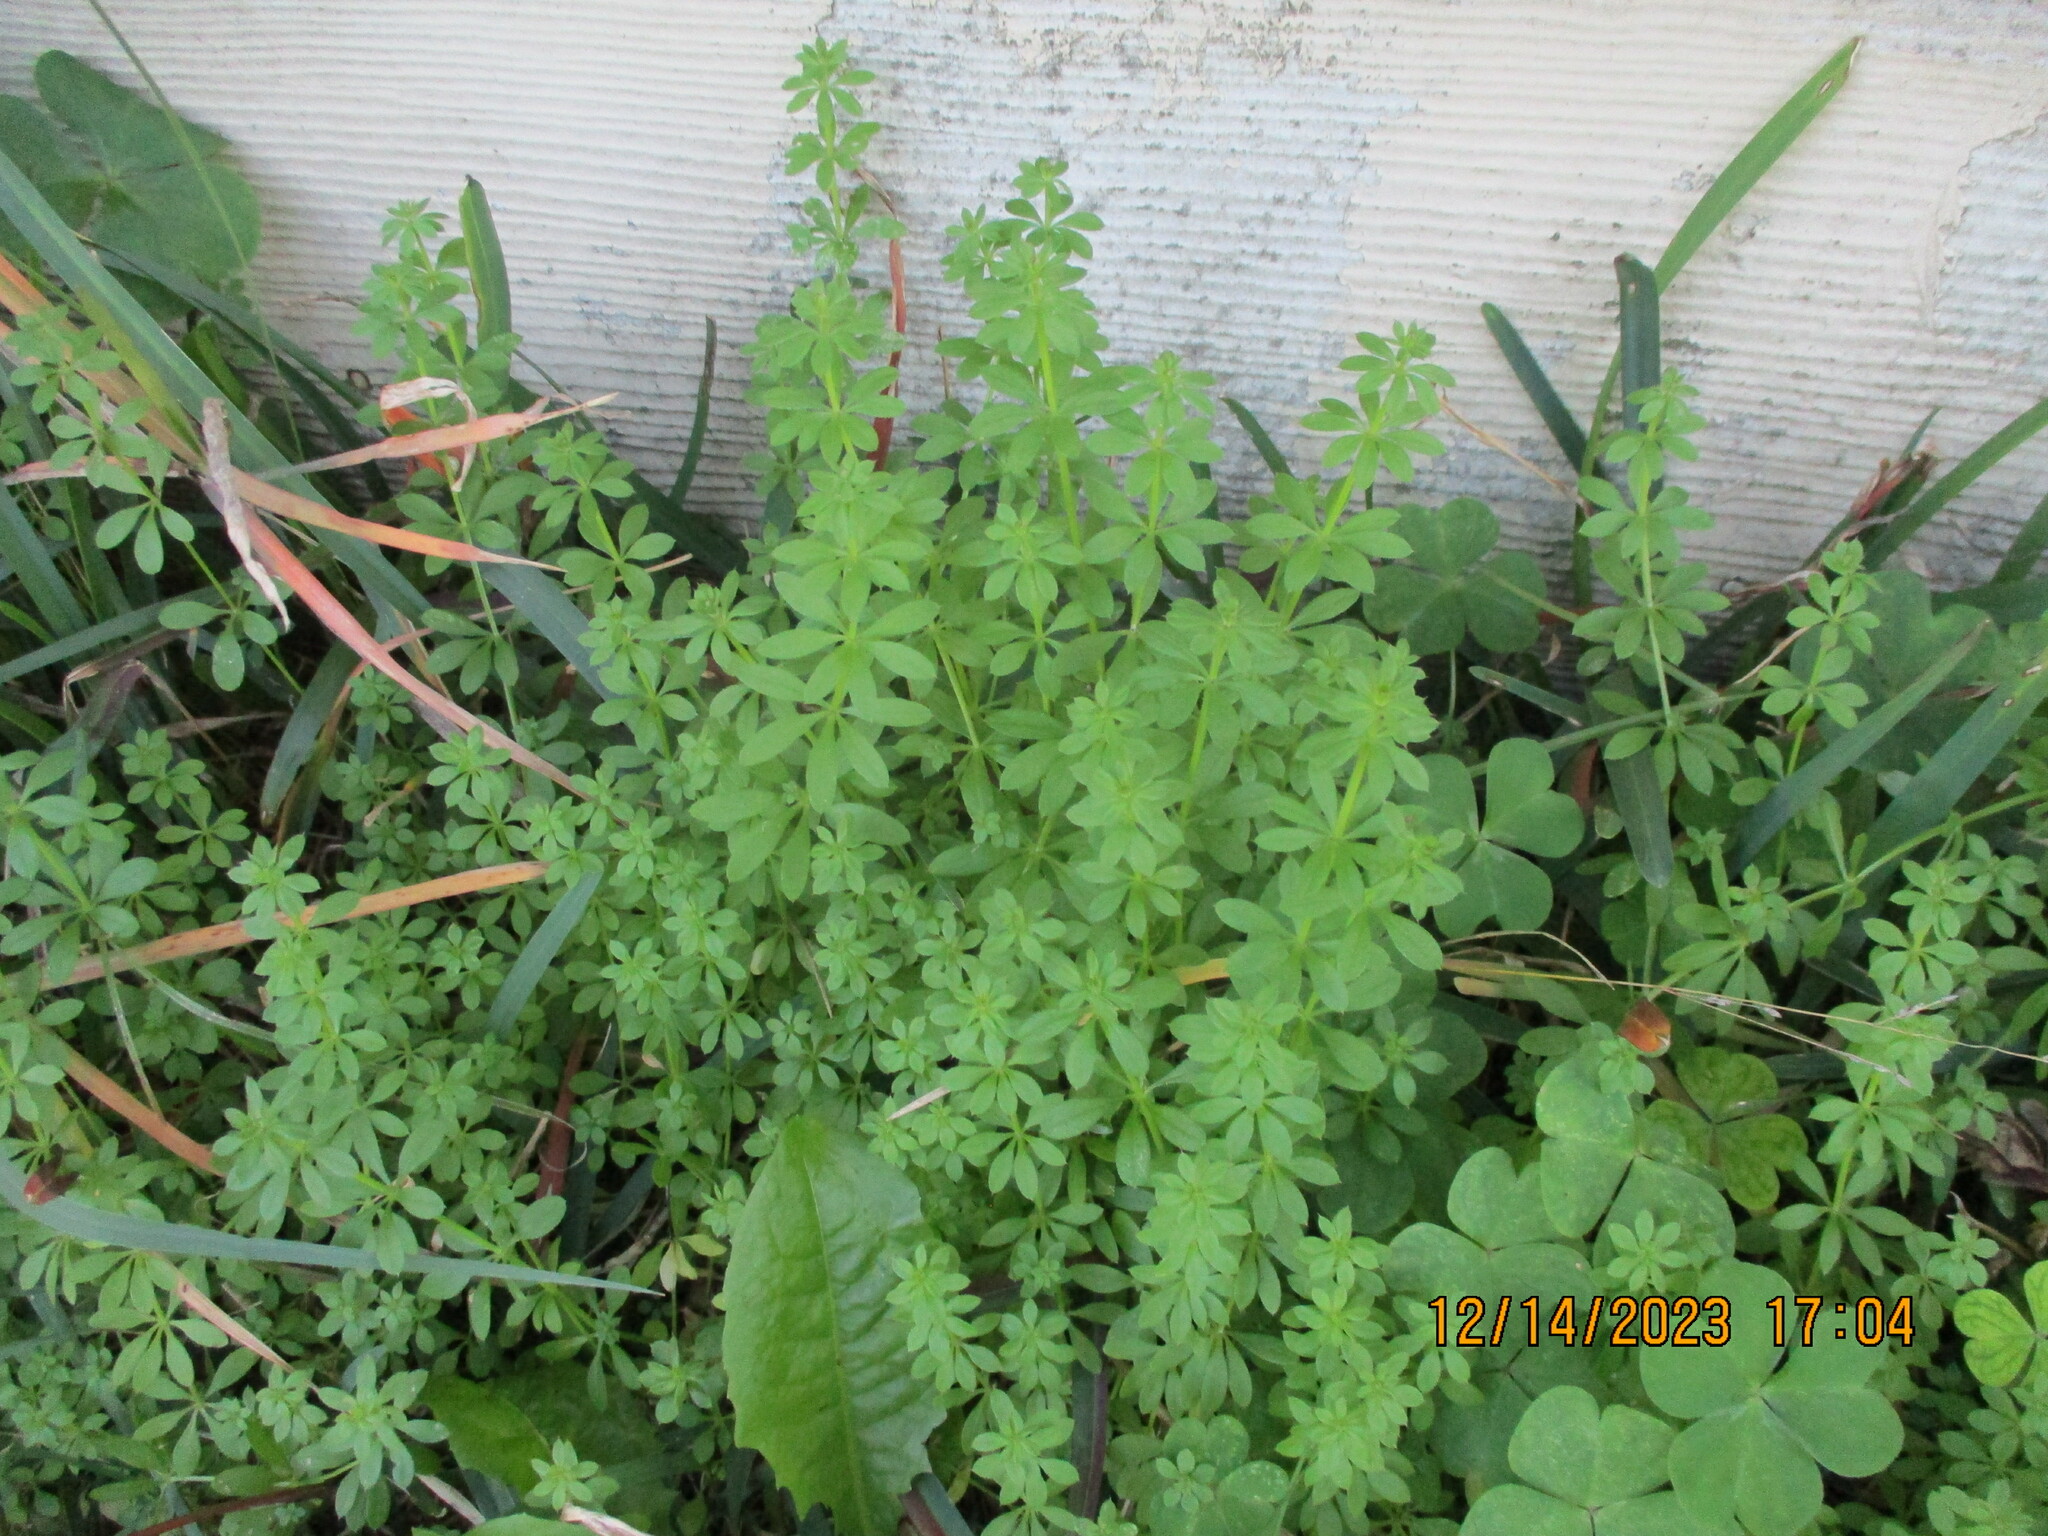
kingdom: Plantae
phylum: Tracheophyta
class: Magnoliopsida
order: Gentianales
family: Rubiaceae
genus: Galium
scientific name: Galium aparine
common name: Cleavers
